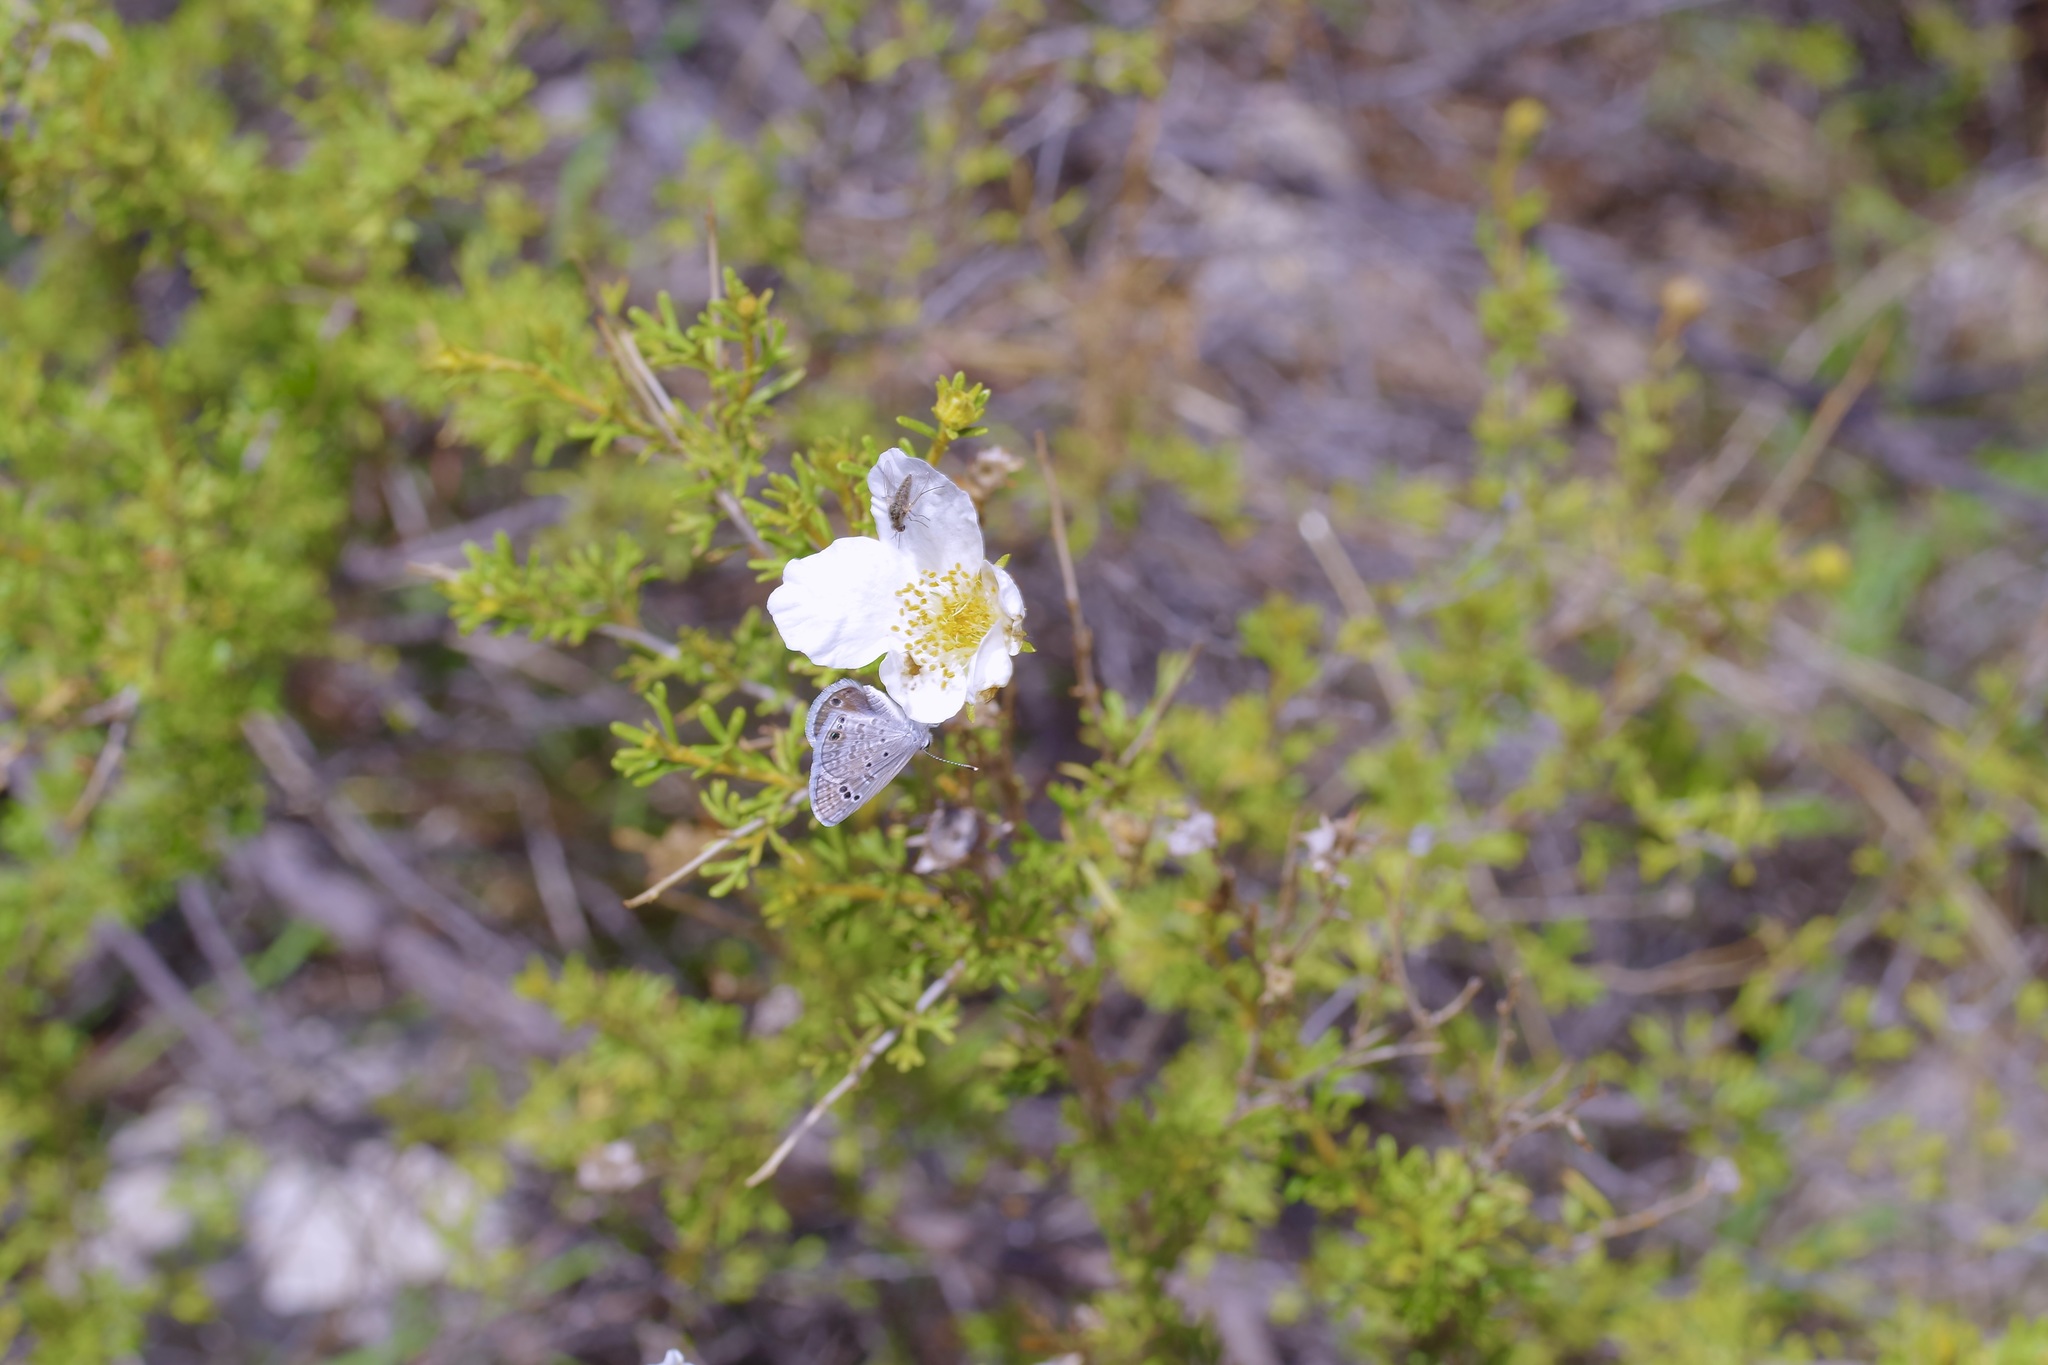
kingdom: Plantae
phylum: Tracheophyta
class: Magnoliopsida
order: Rosales
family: Rosaceae
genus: Fallugia
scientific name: Fallugia paradoxa
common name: Apache-plume
